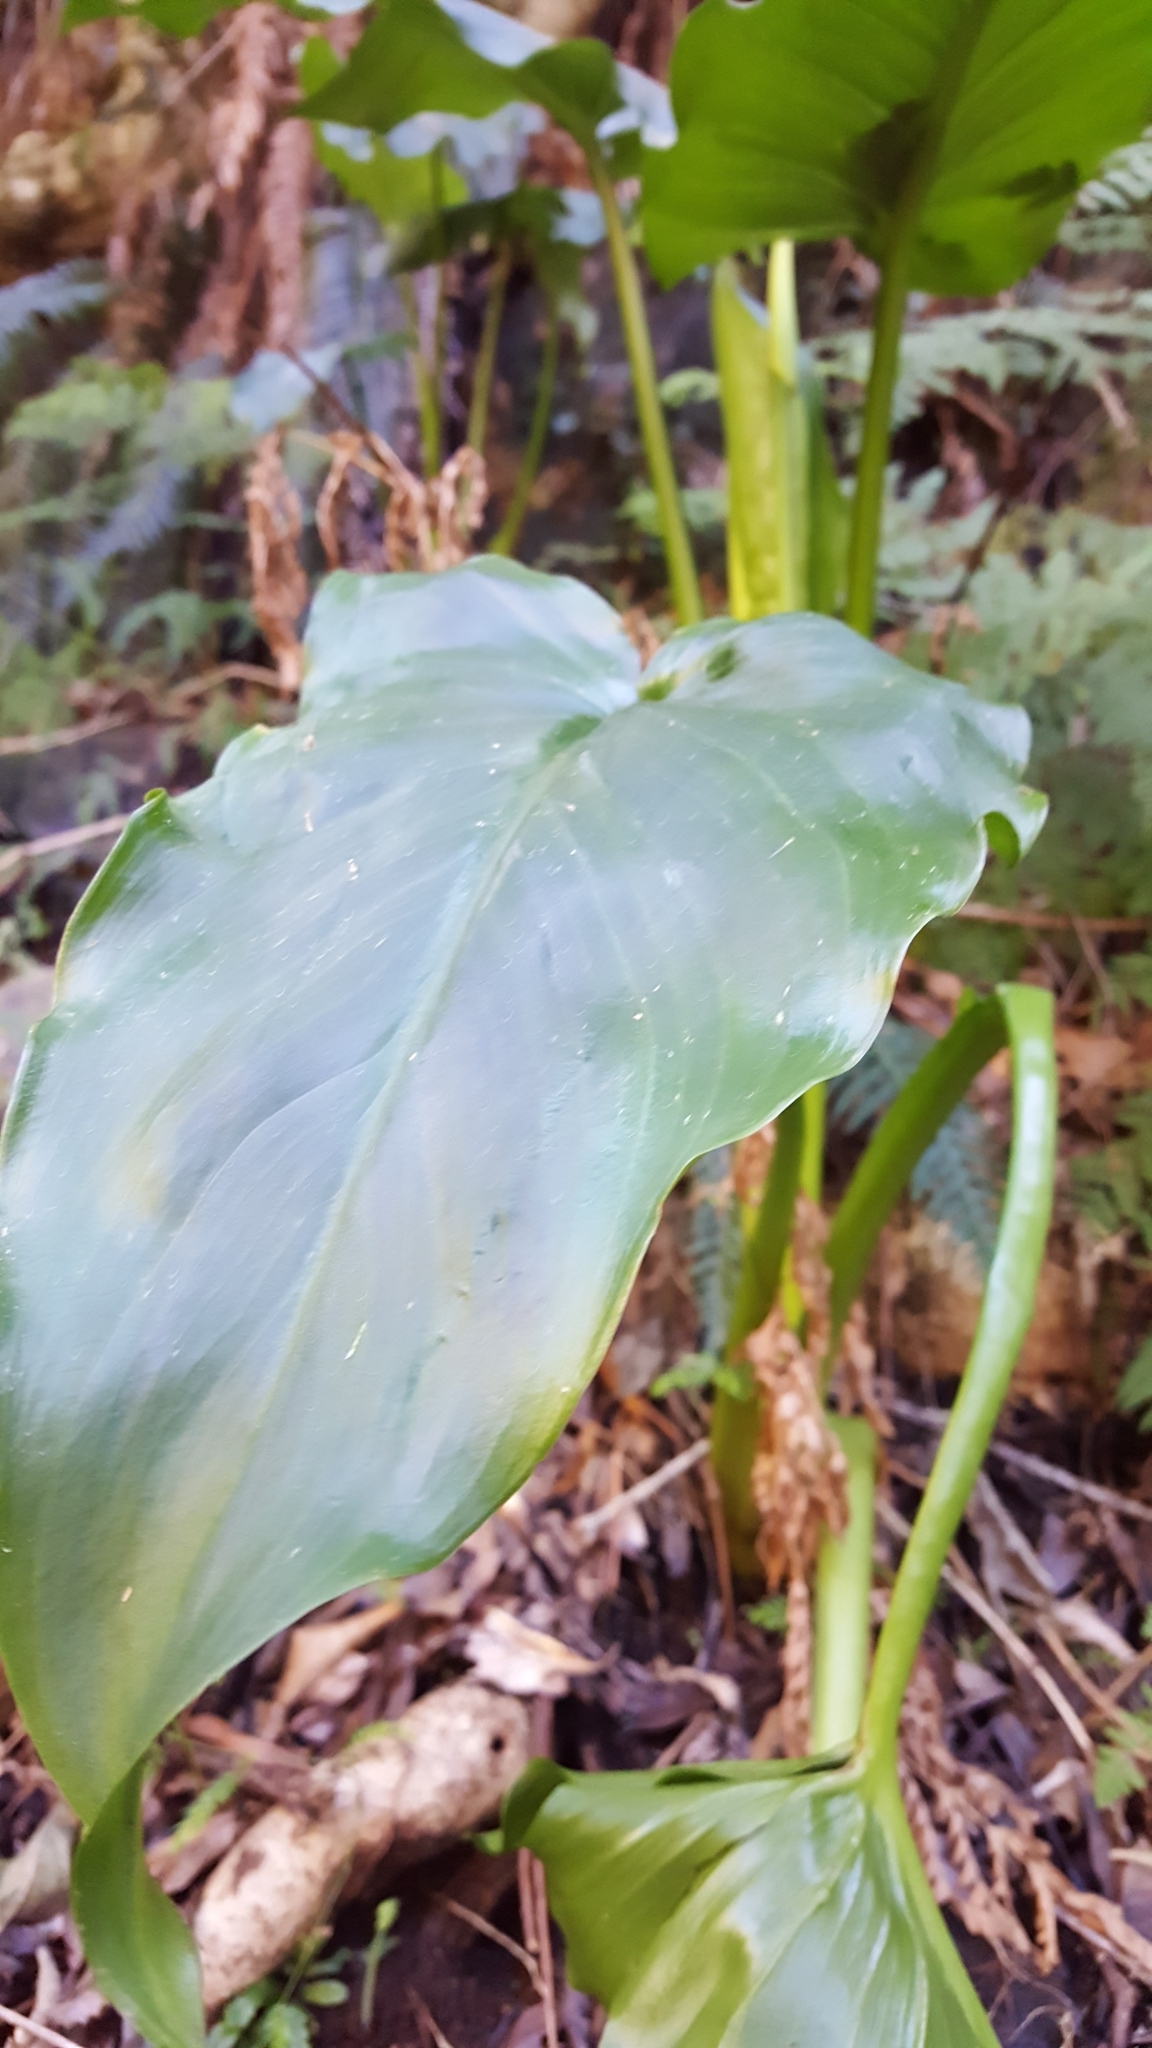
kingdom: Plantae
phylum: Tracheophyta
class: Liliopsida
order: Alismatales
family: Araceae
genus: Zantedeschia
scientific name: Zantedeschia aethiopica
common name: Altar-lily
